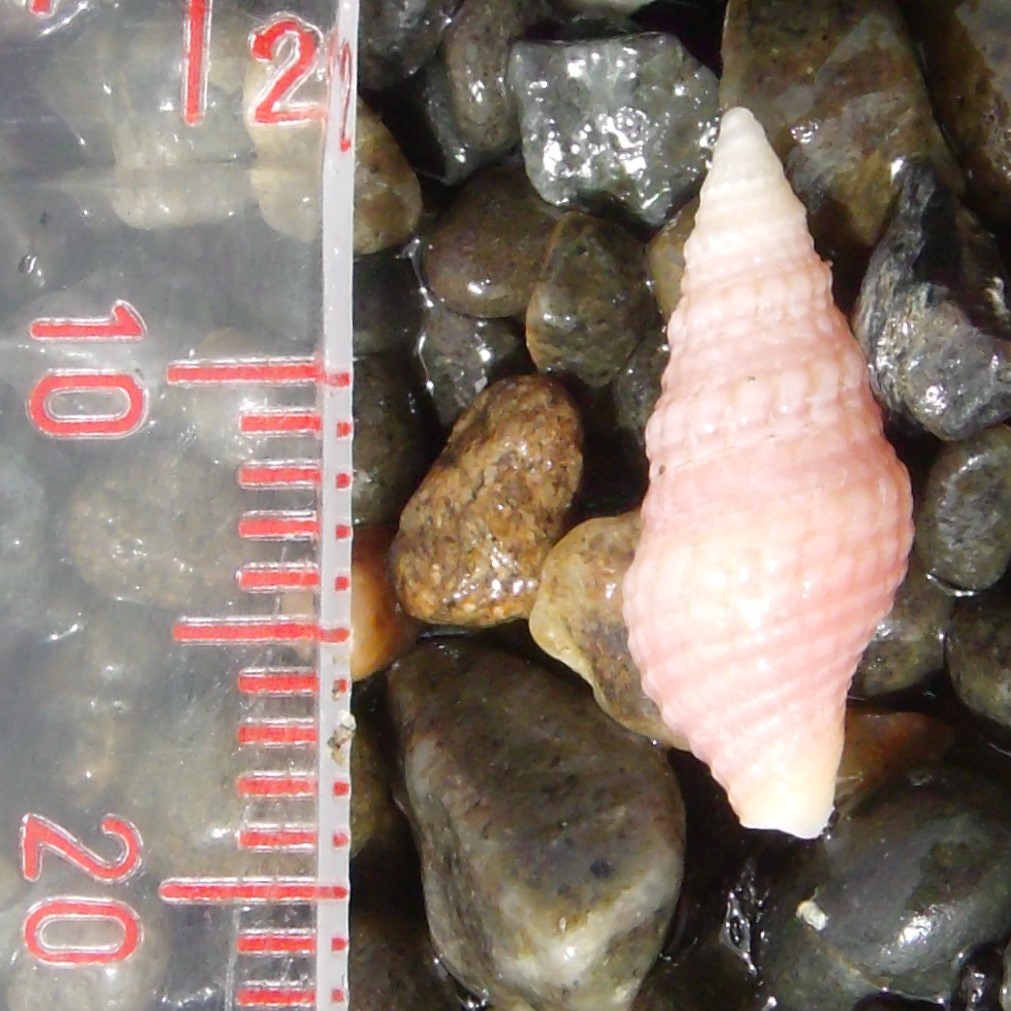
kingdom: Animalia
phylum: Mollusca
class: Gastropoda
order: Neogastropoda
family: Borsoniidae
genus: Phenatoma
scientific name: Phenatoma roseum
